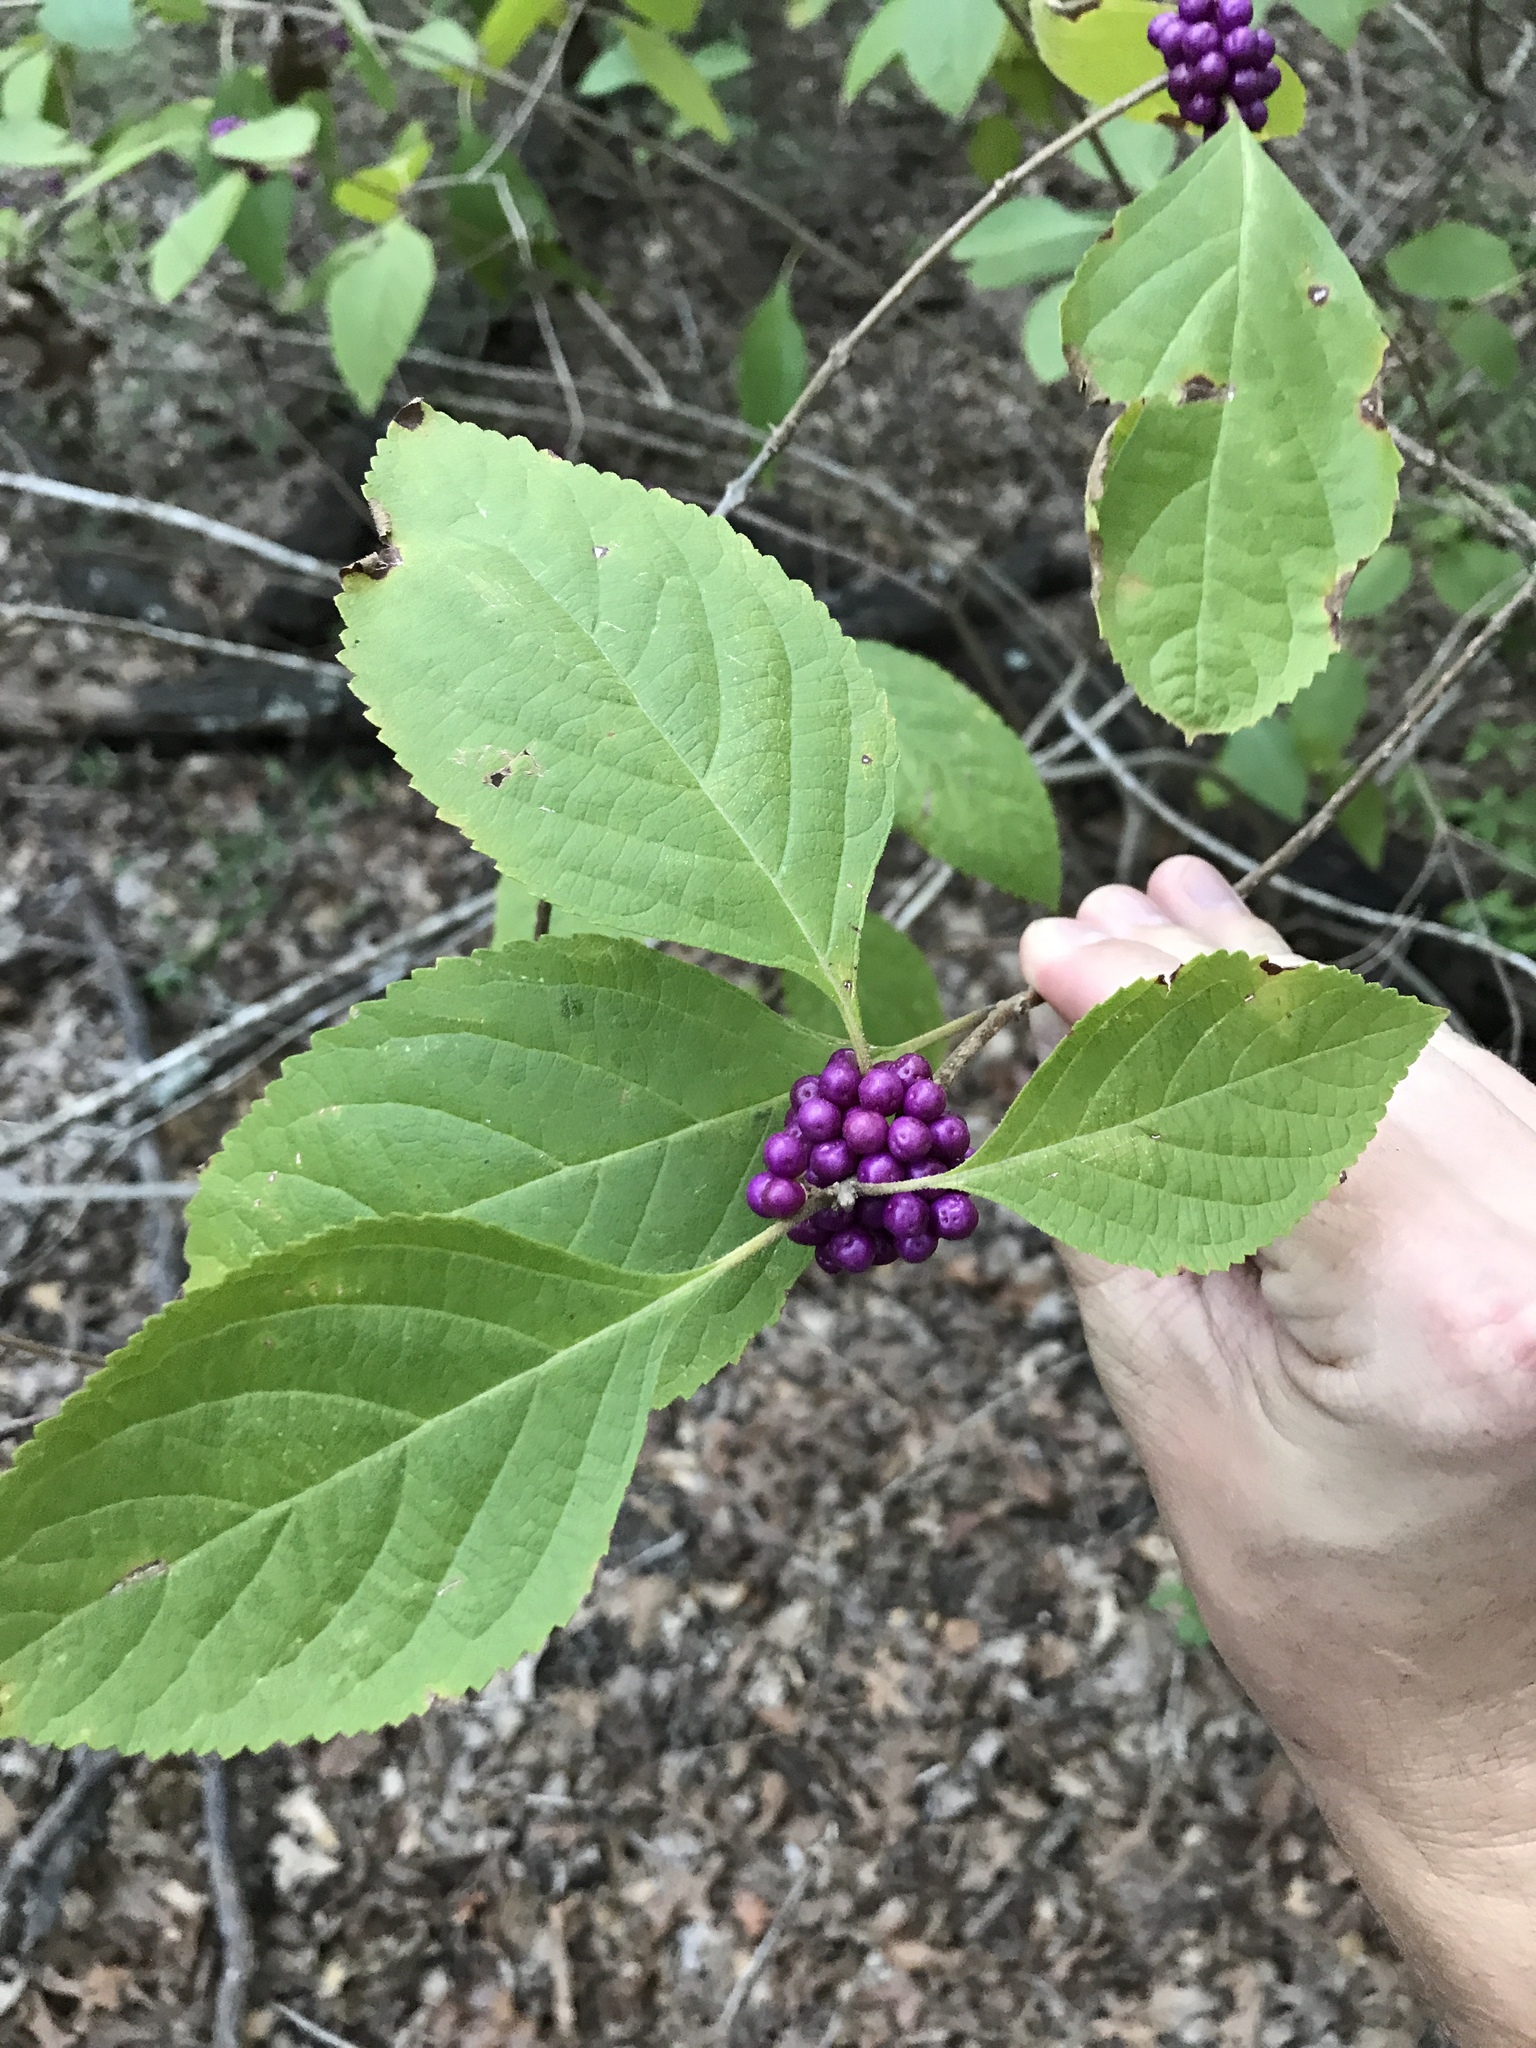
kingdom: Plantae
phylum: Tracheophyta
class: Magnoliopsida
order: Lamiales
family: Lamiaceae
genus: Callicarpa
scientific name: Callicarpa americana
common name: American beautyberry
